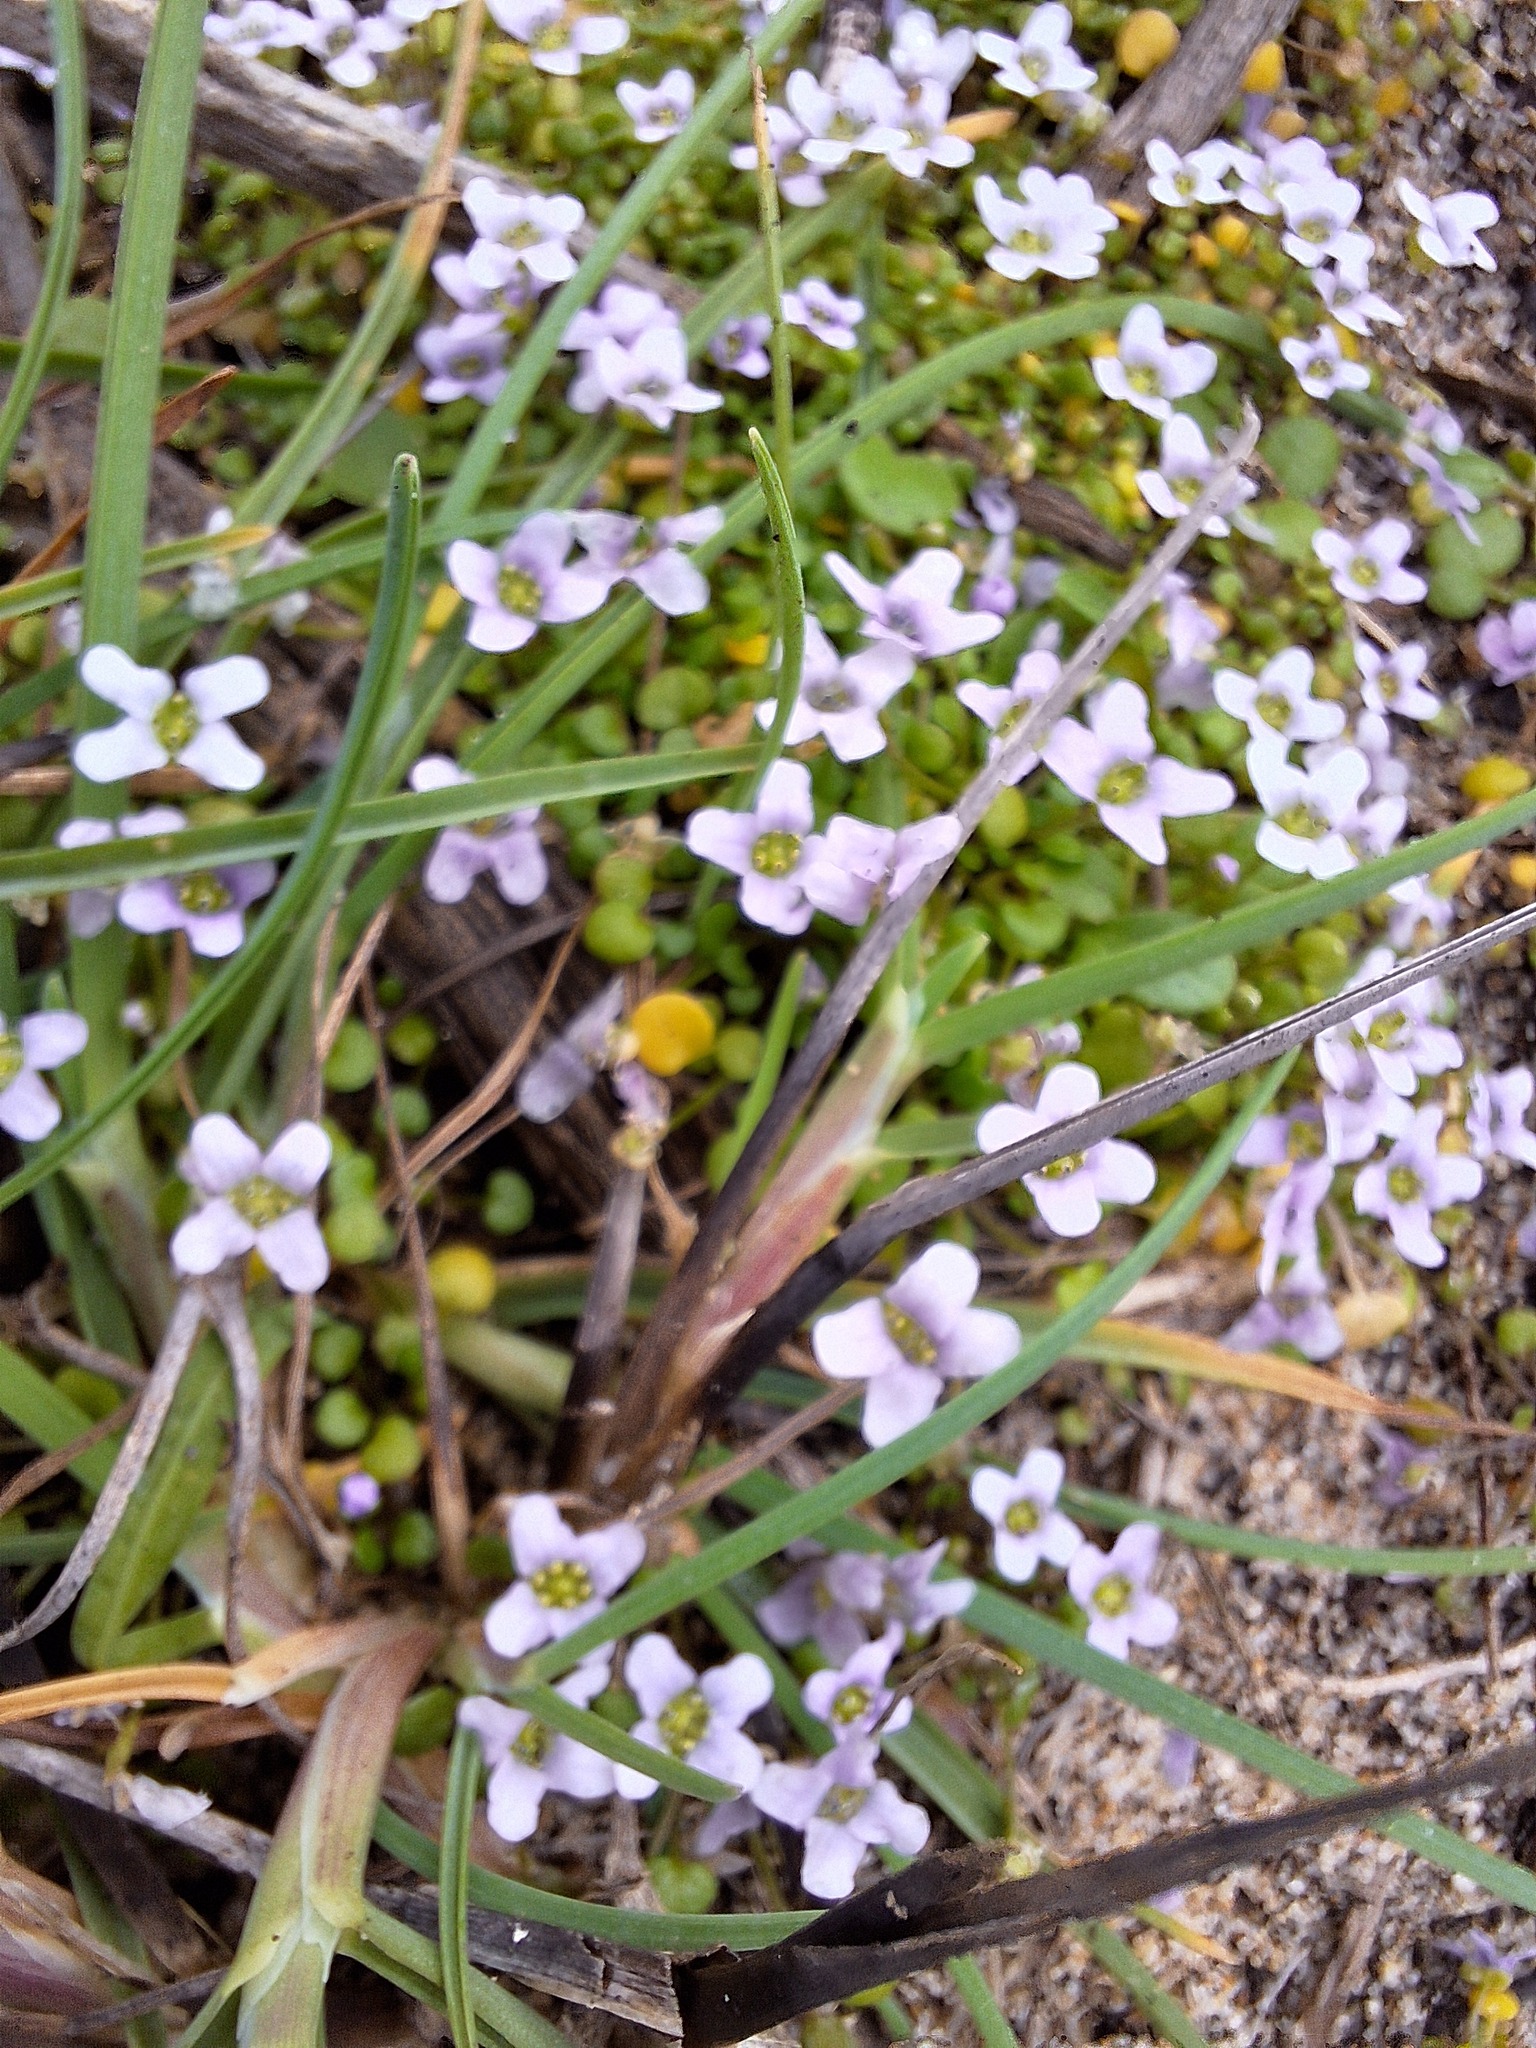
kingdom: Plantae
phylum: Tracheophyta
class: Magnoliopsida
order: Brassicales
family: Brassicaceae
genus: Ionopsidium
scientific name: Ionopsidium acaule
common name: False diamondflower
